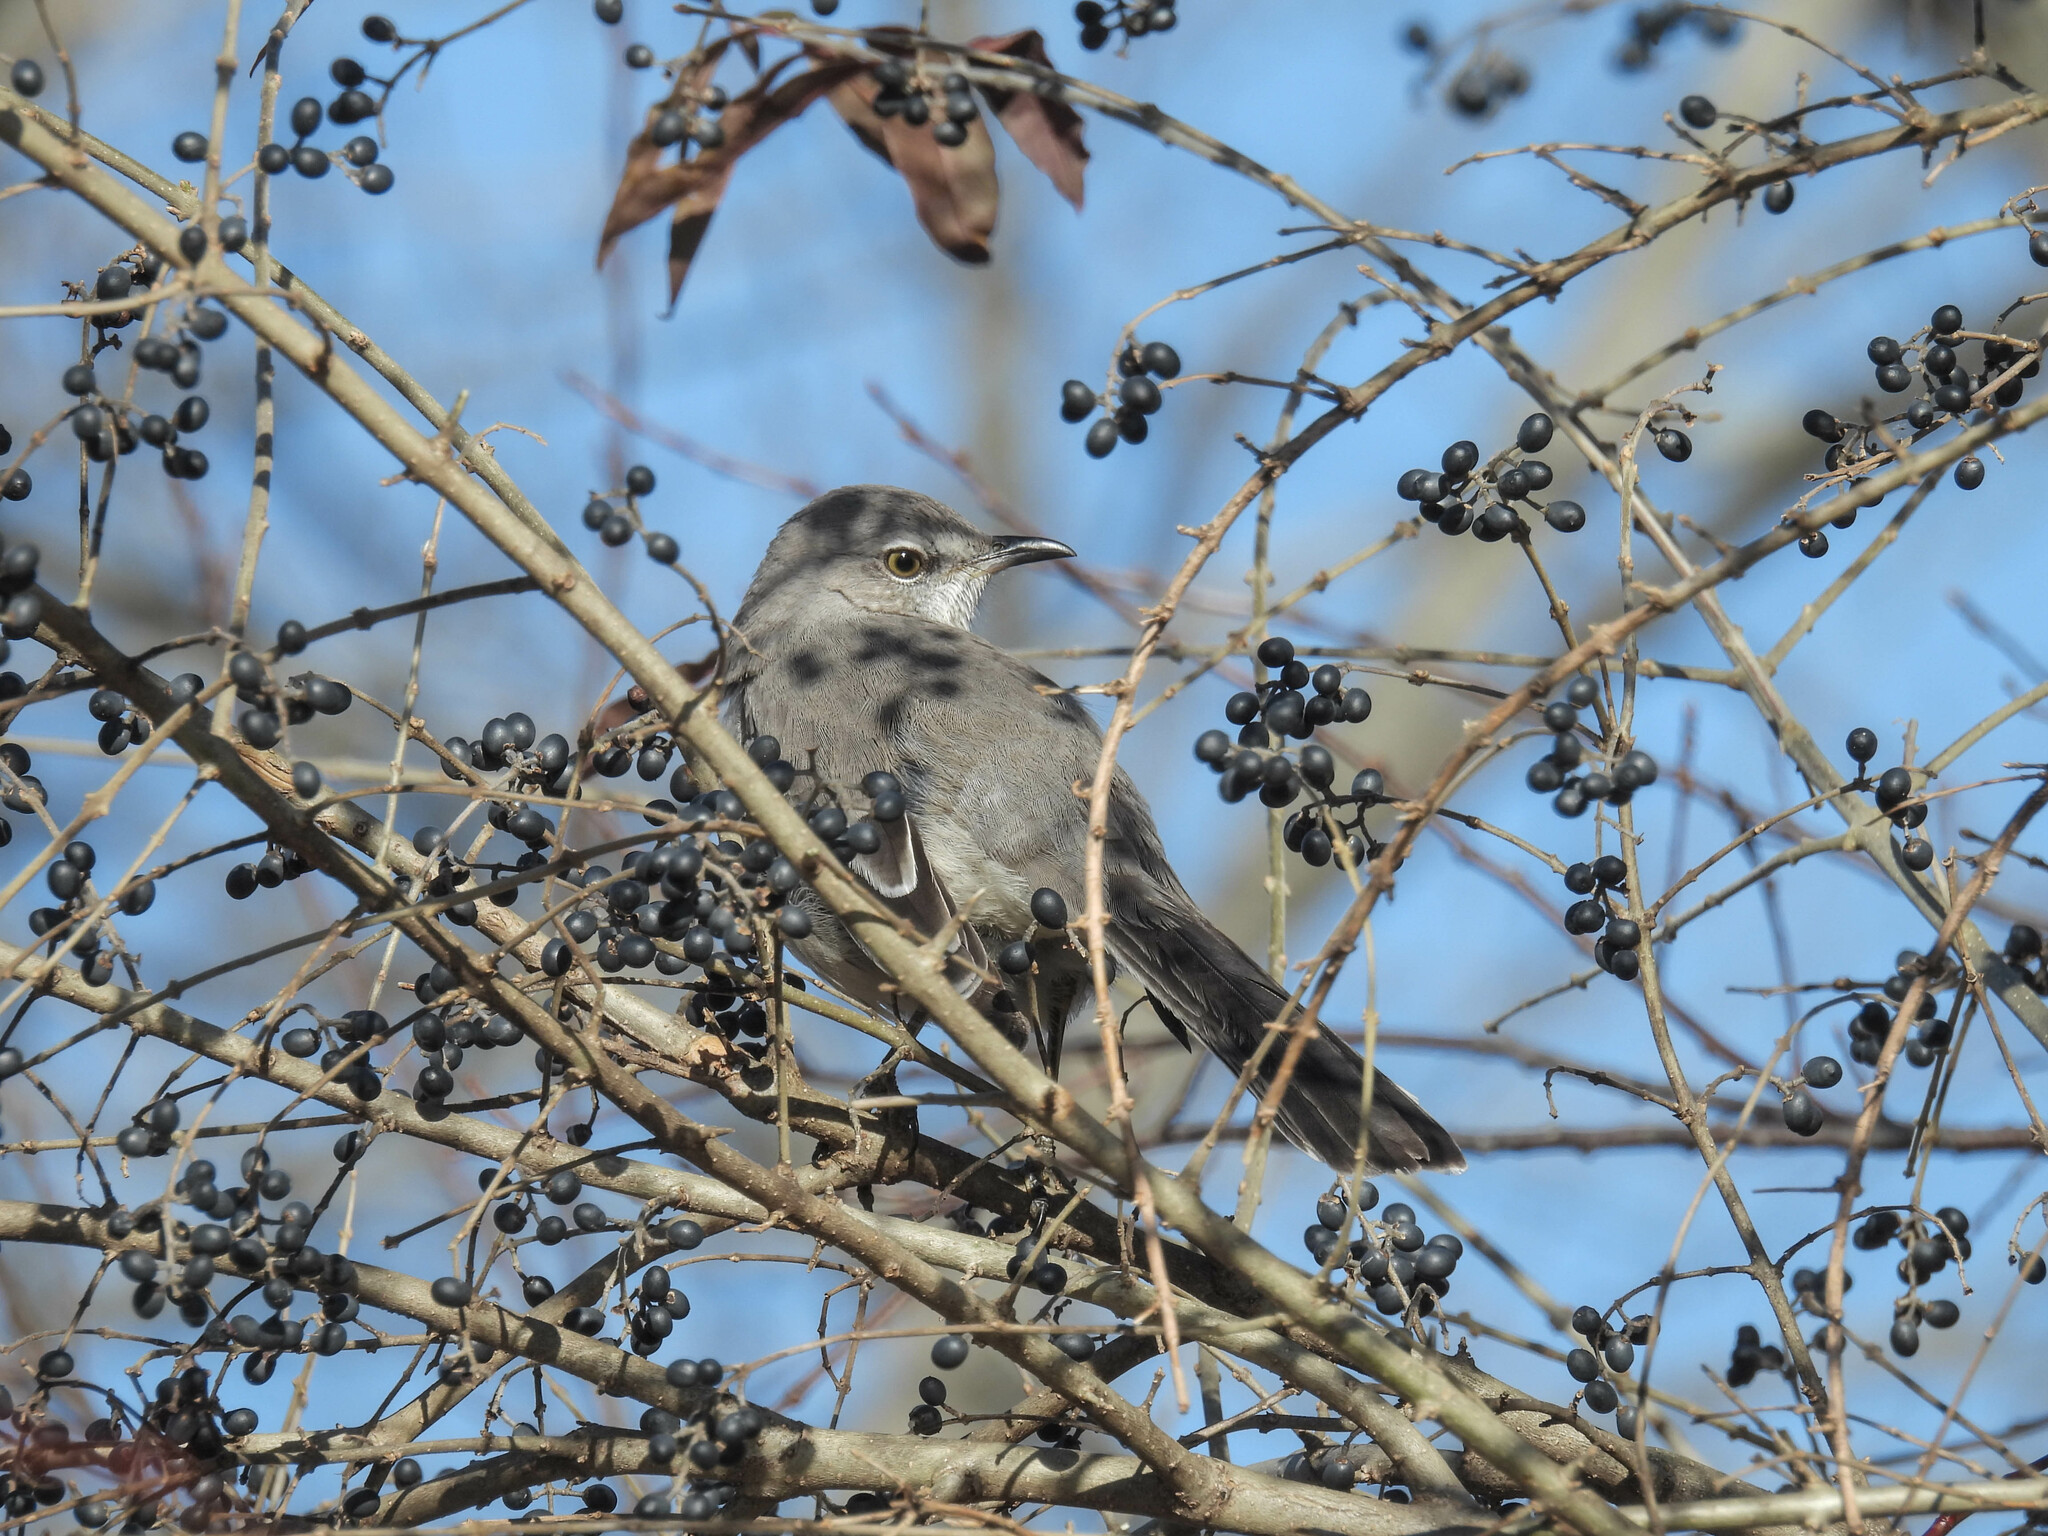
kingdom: Animalia
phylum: Chordata
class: Aves
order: Passeriformes
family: Mimidae
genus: Mimus
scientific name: Mimus polyglottos
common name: Northern mockingbird
